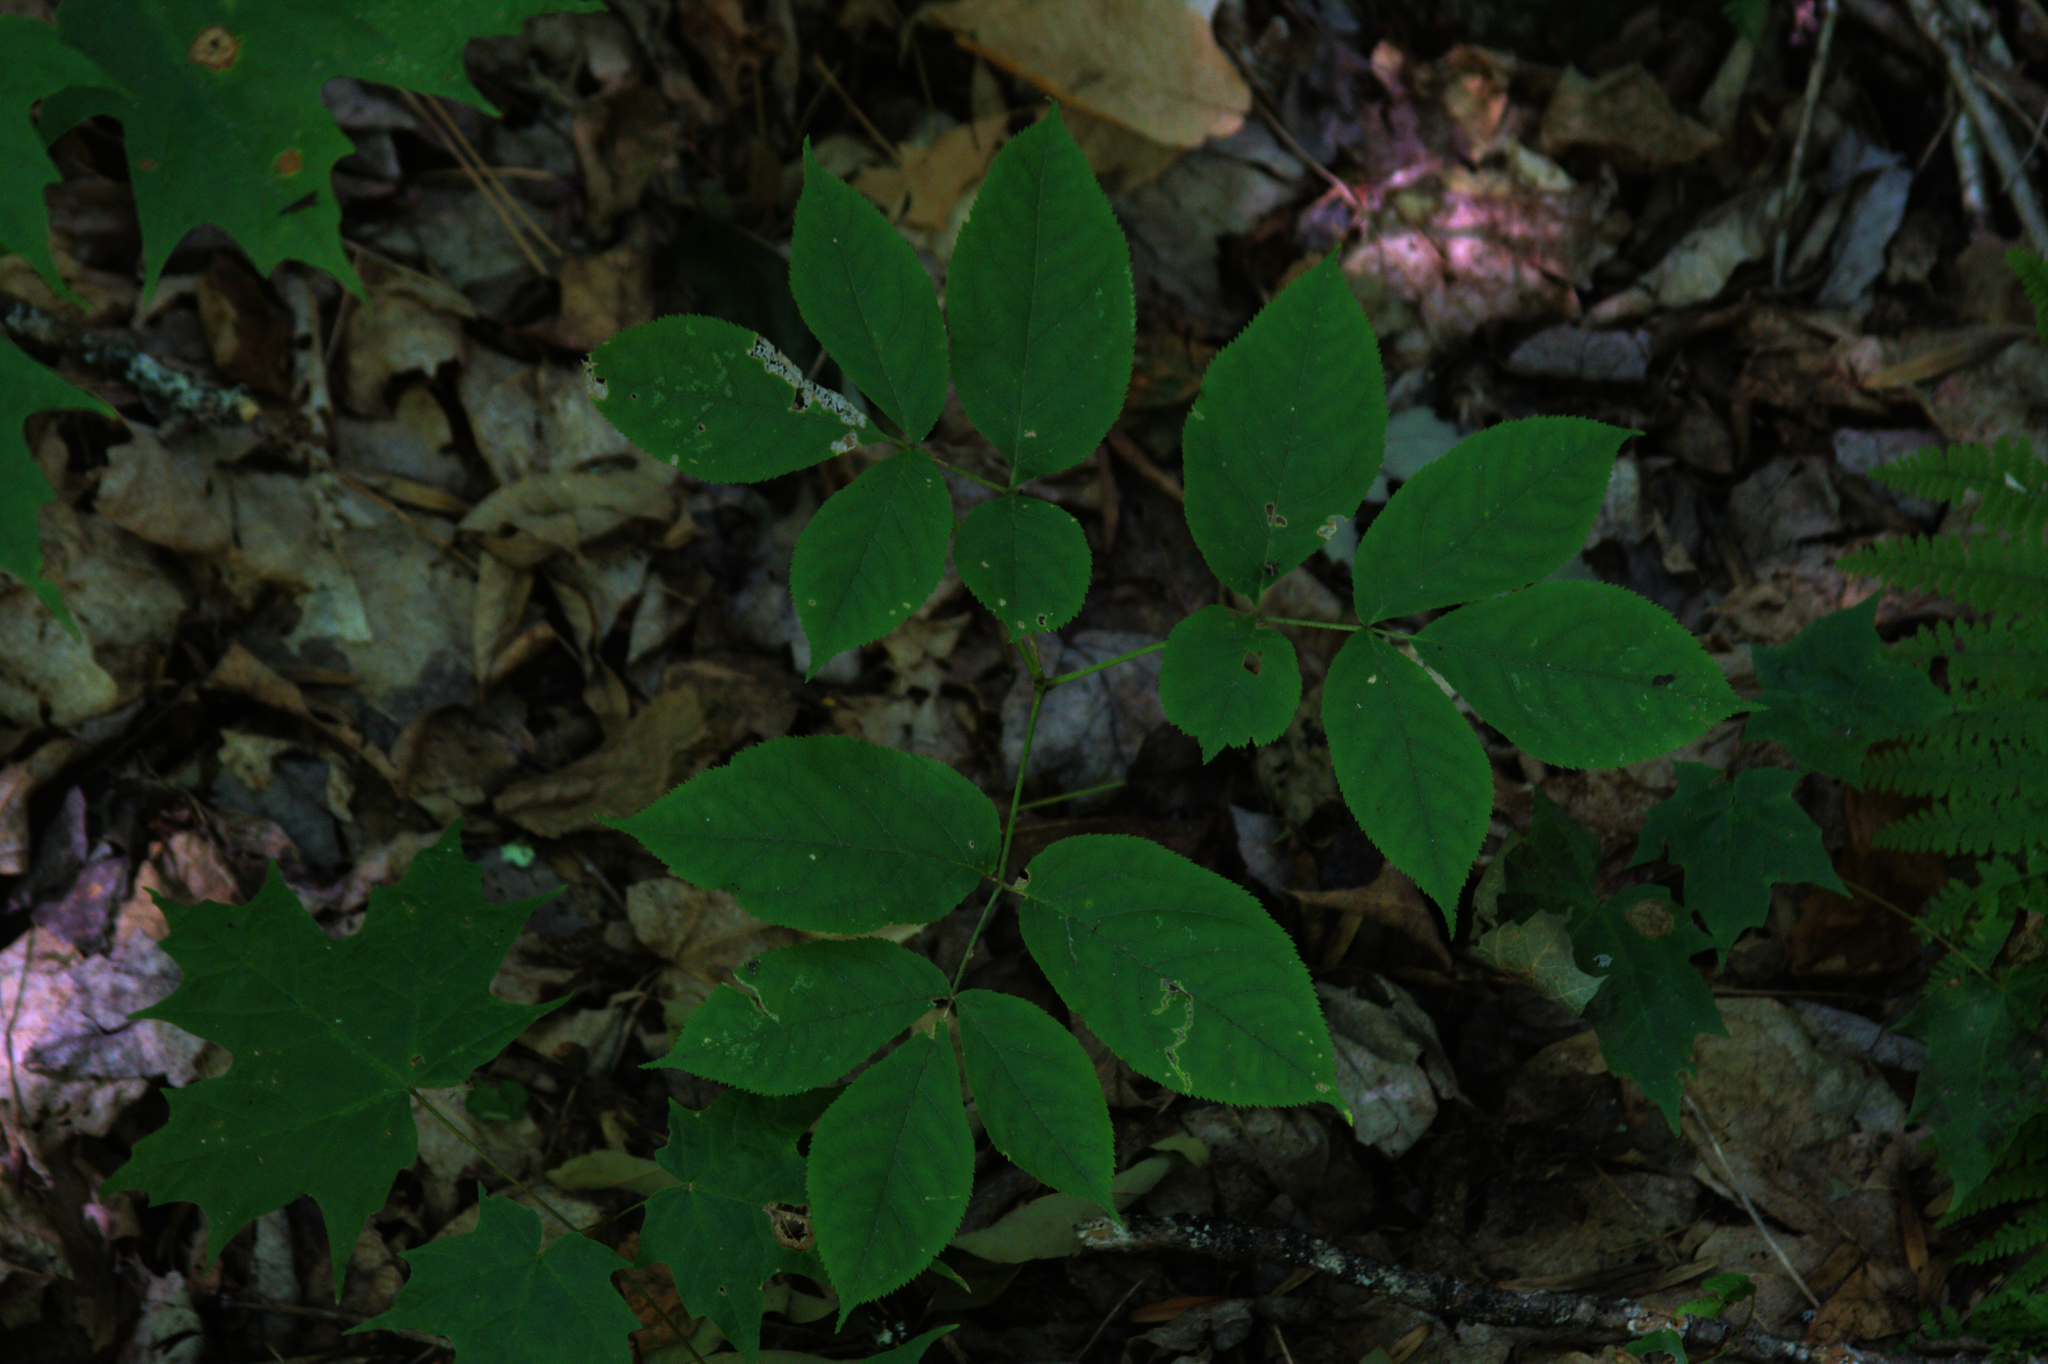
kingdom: Plantae
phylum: Tracheophyta
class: Magnoliopsida
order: Apiales
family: Araliaceae
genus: Aralia
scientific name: Aralia nudicaulis
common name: Wild sarsaparilla
